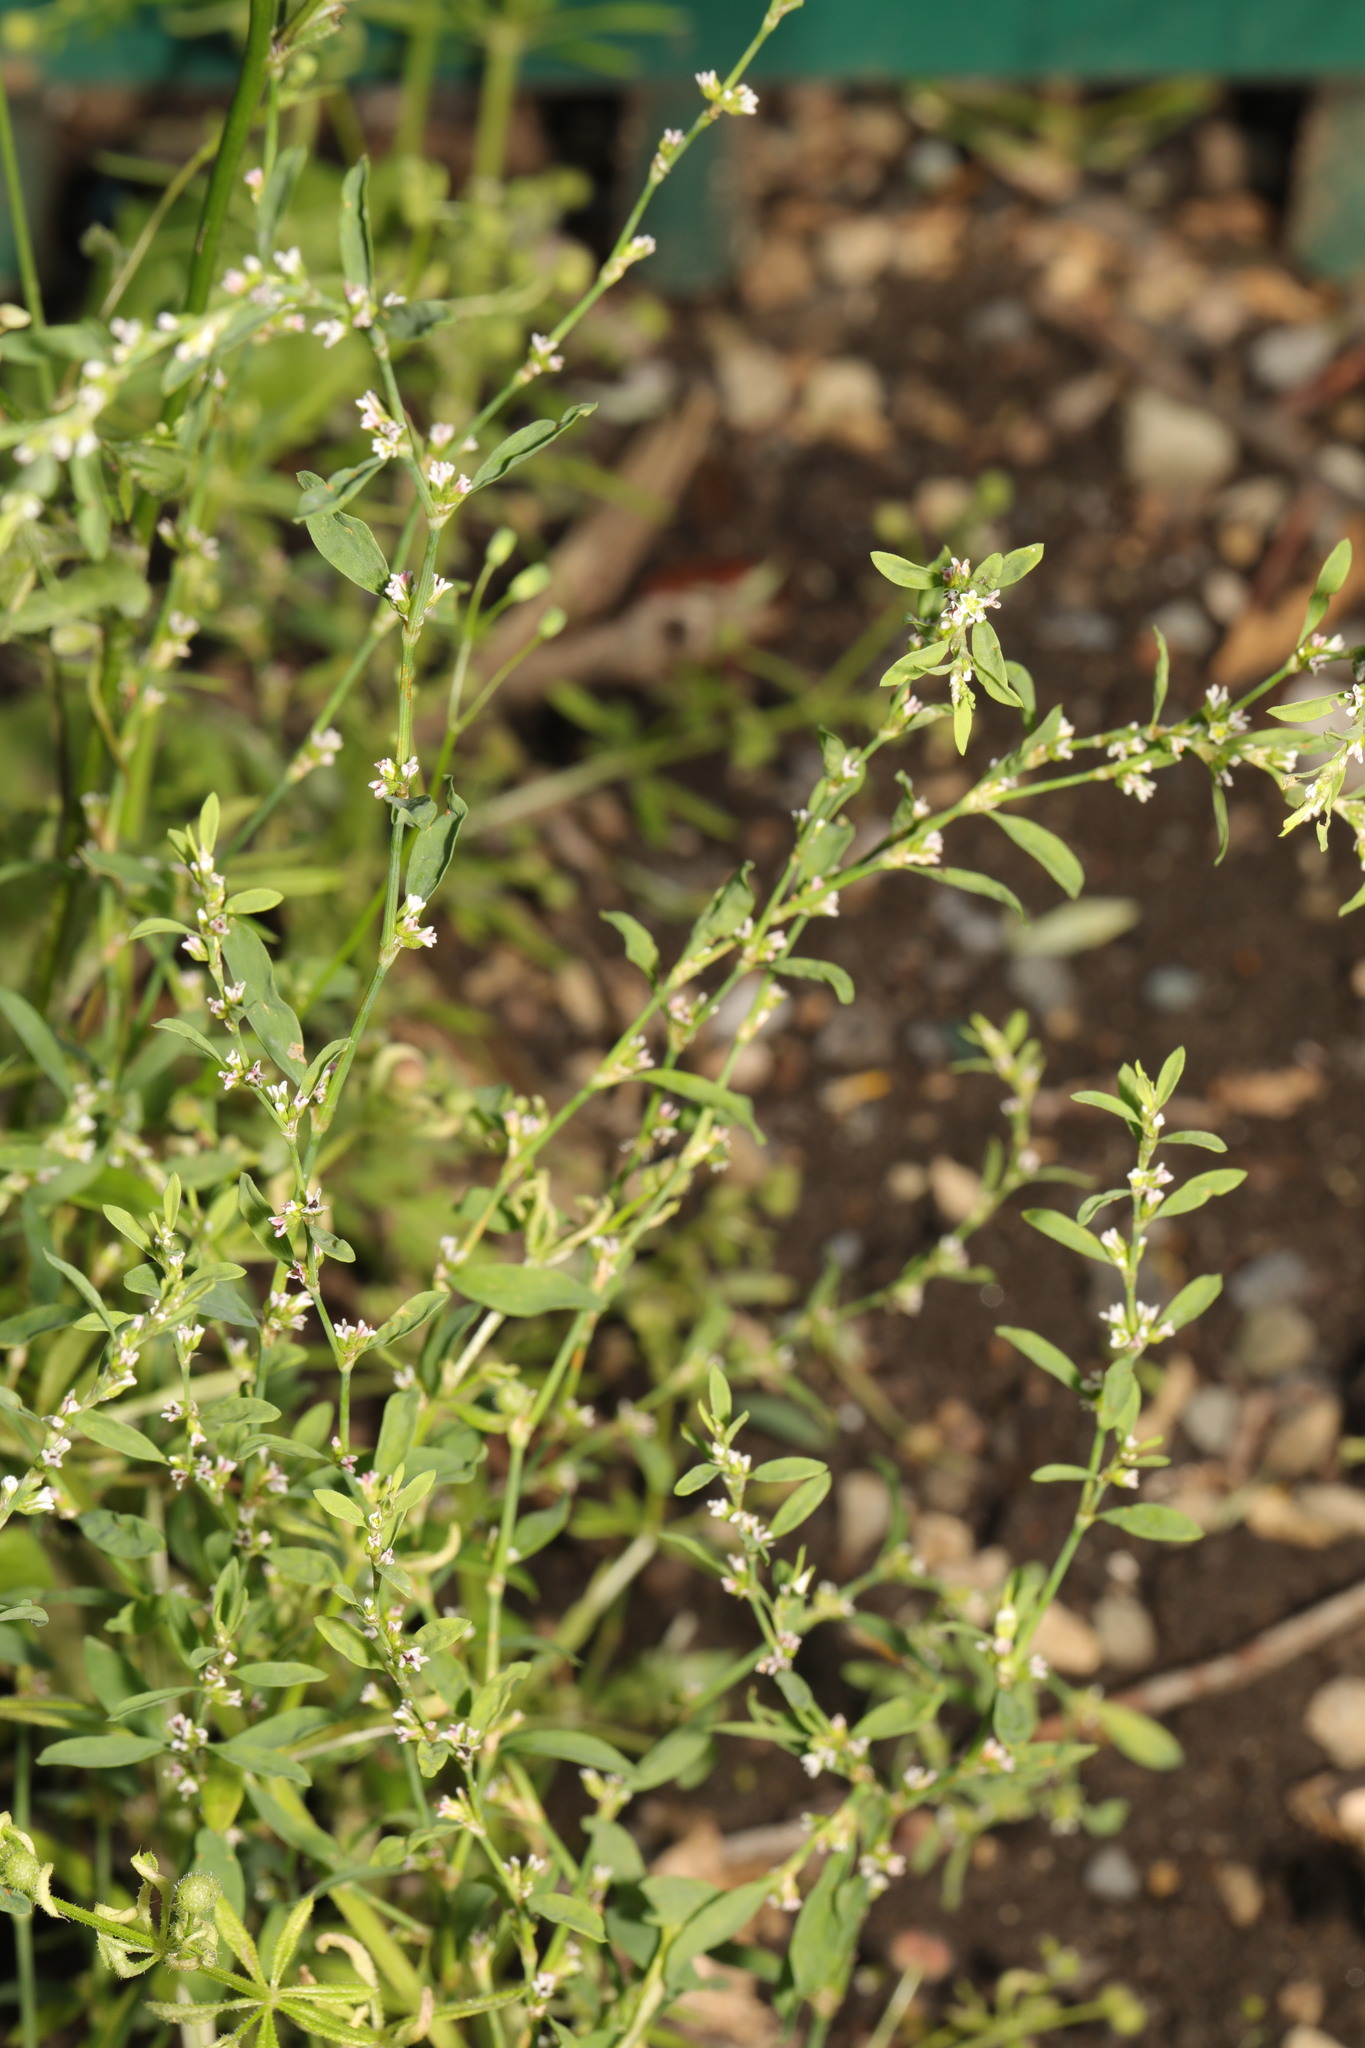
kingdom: Plantae
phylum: Tracheophyta
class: Magnoliopsida
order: Caryophyllales
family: Polygonaceae
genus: Polygonum
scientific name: Polygonum aviculare
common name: Prostrate knotweed
